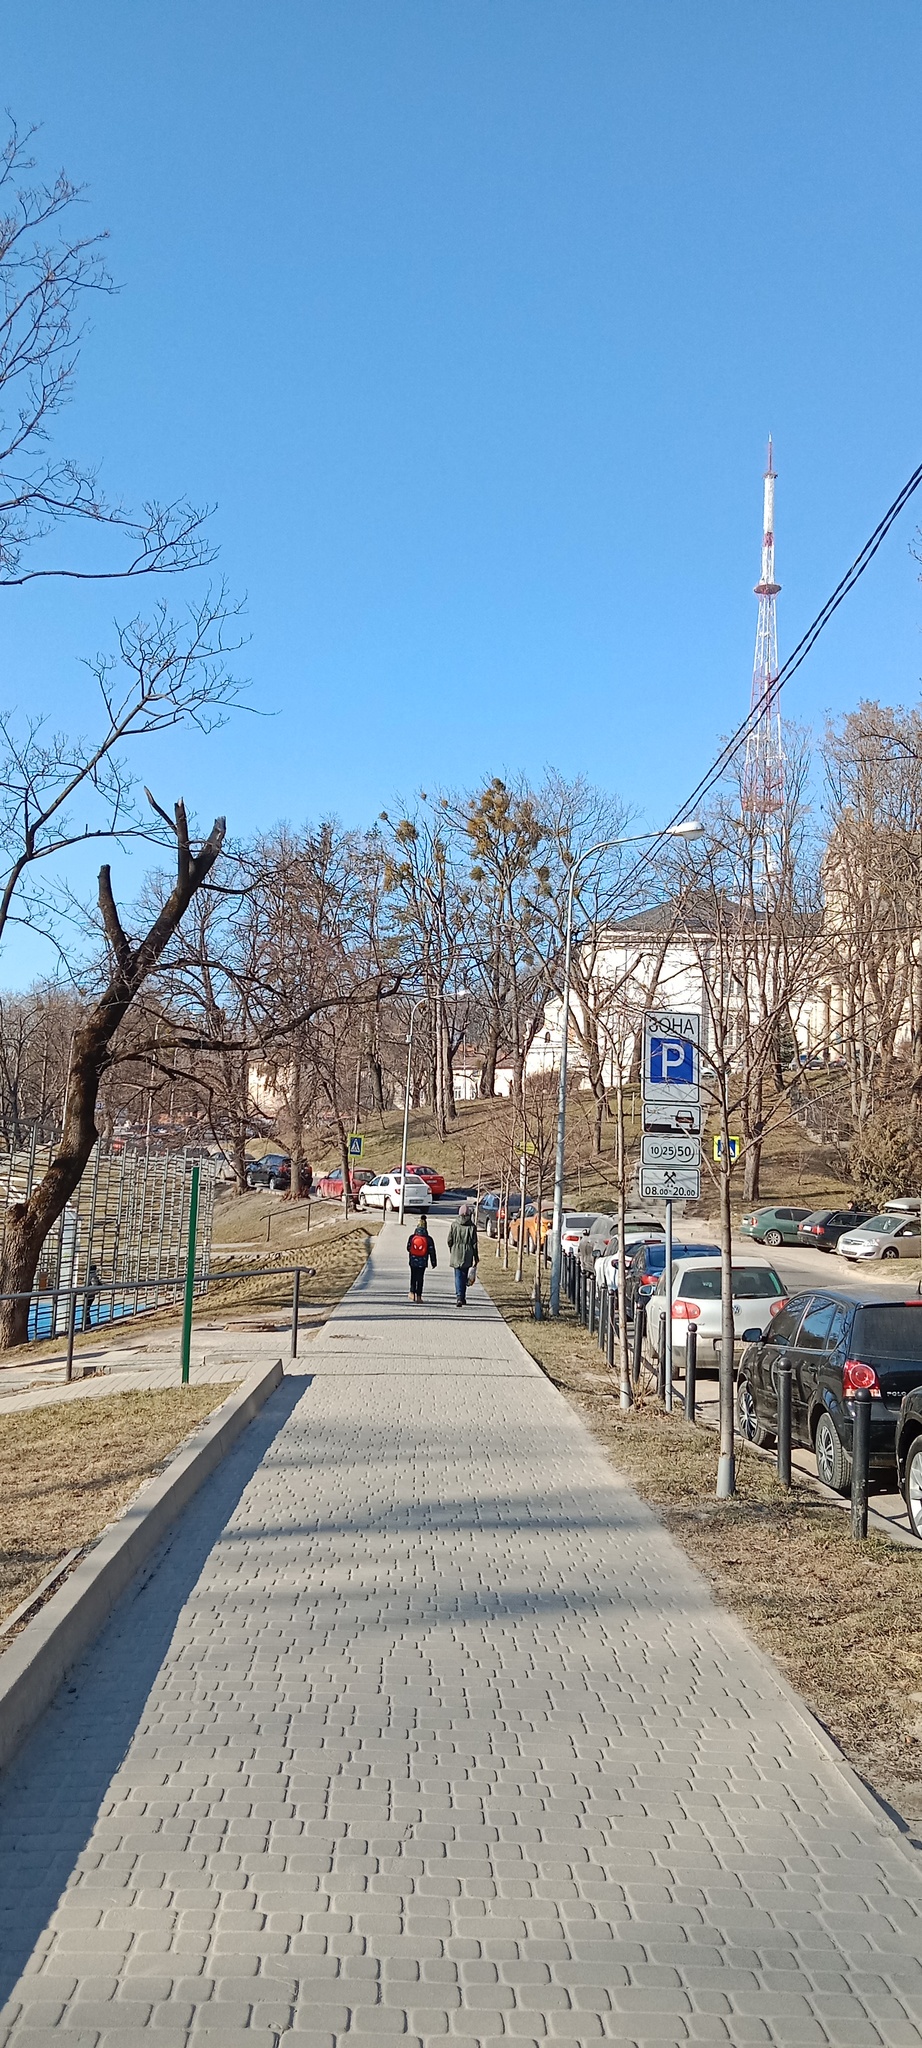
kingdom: Plantae
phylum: Tracheophyta
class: Magnoliopsida
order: Santalales
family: Viscaceae
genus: Viscum
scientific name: Viscum album
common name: Mistletoe
